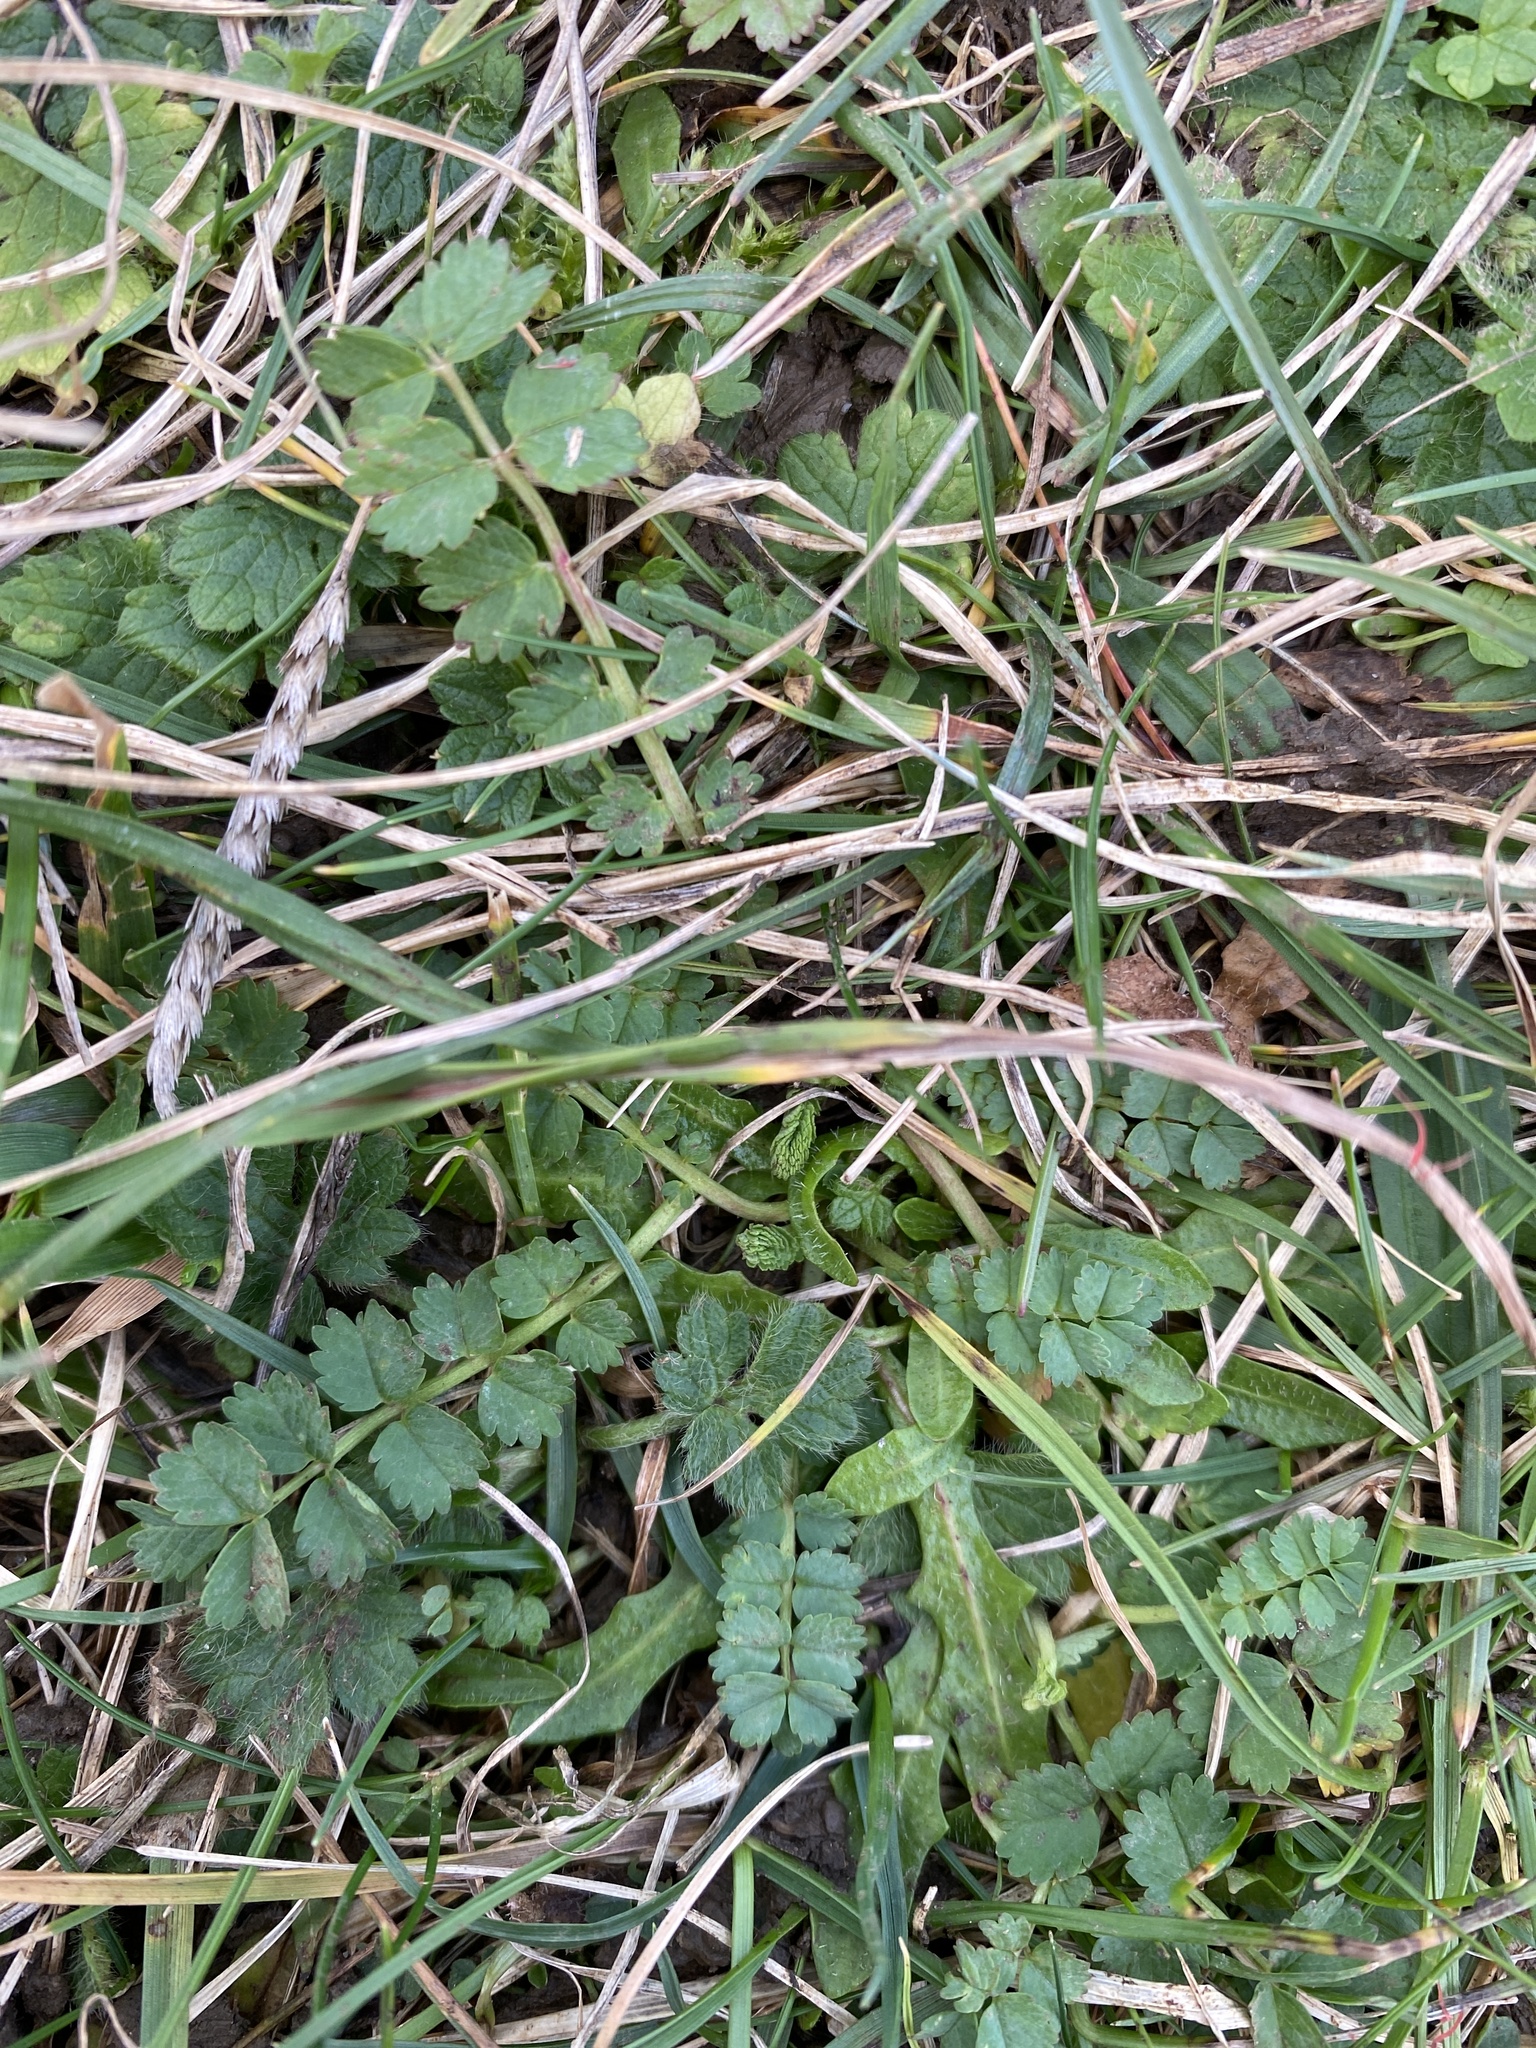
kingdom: Plantae
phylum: Tracheophyta
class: Magnoliopsida
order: Rosales
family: Rosaceae
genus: Poterium
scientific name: Poterium sanguisorba
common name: Salad burnet
